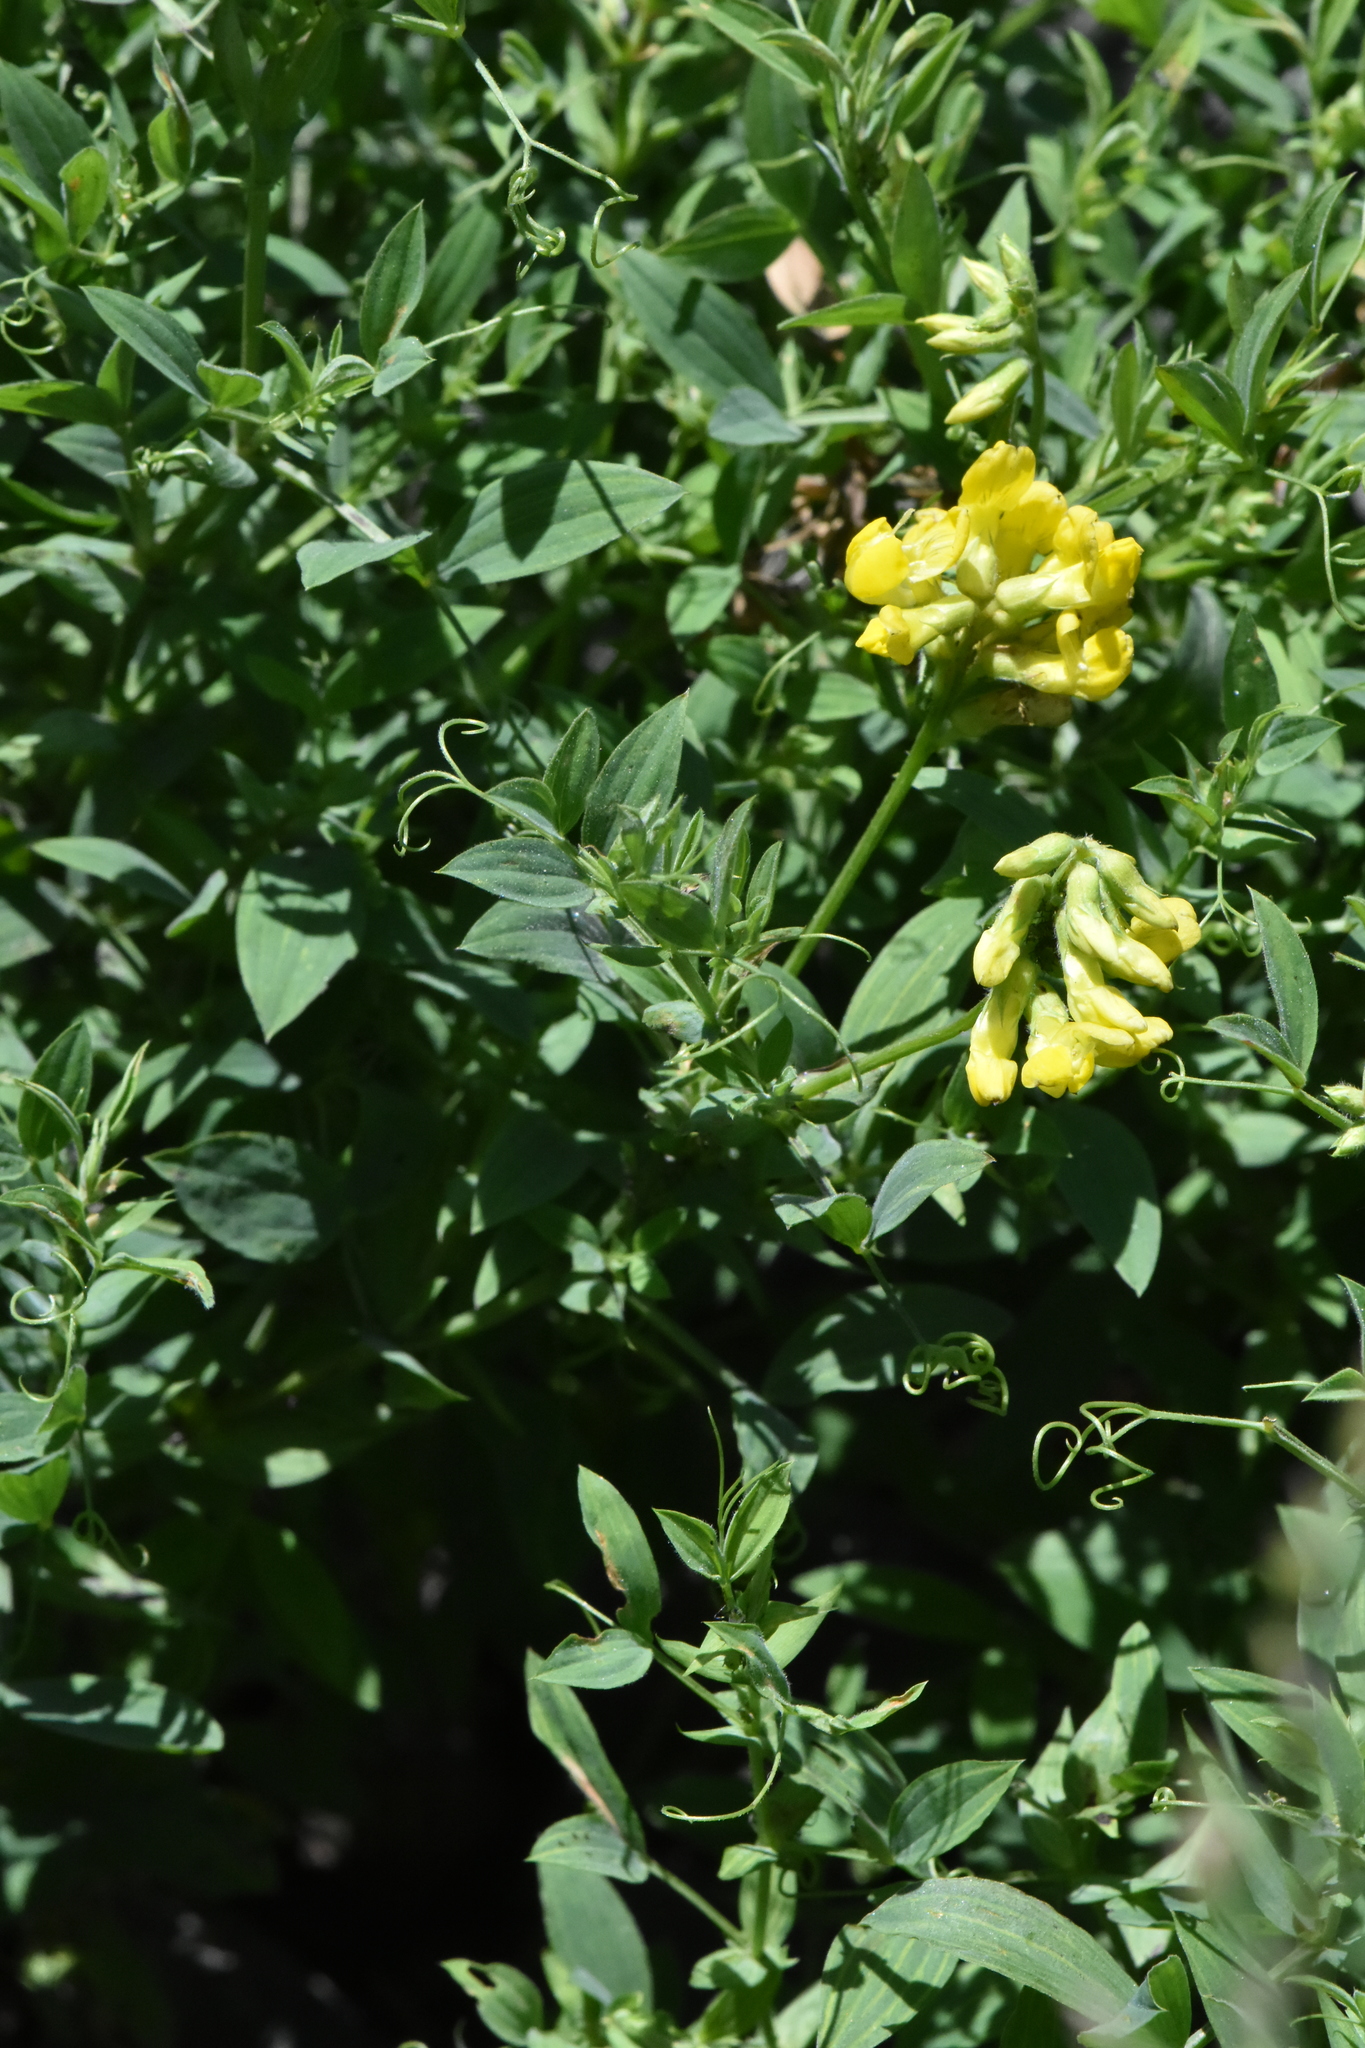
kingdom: Plantae
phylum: Tracheophyta
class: Magnoliopsida
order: Fabales
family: Fabaceae
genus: Lathyrus
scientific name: Lathyrus pratensis
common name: Meadow vetchling
